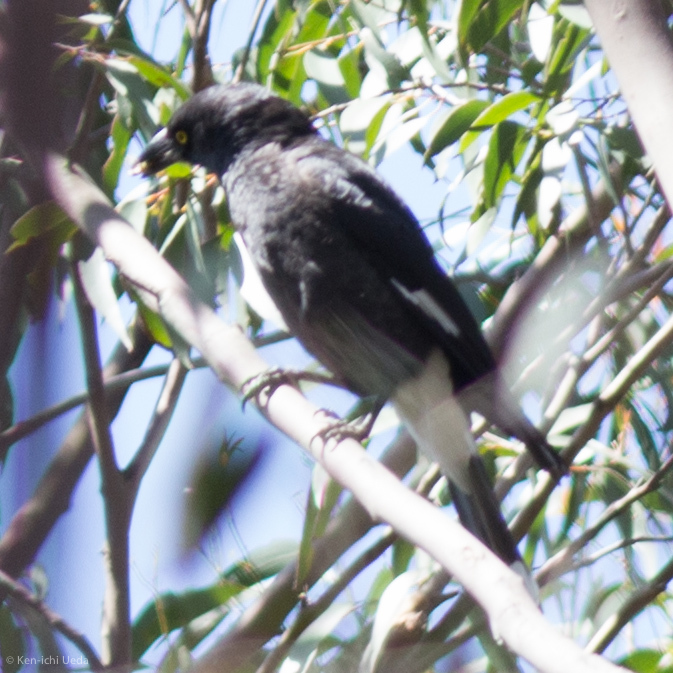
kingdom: Animalia
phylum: Chordata
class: Aves
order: Passeriformes
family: Cracticidae
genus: Strepera
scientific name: Strepera graculina
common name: Pied currawong
